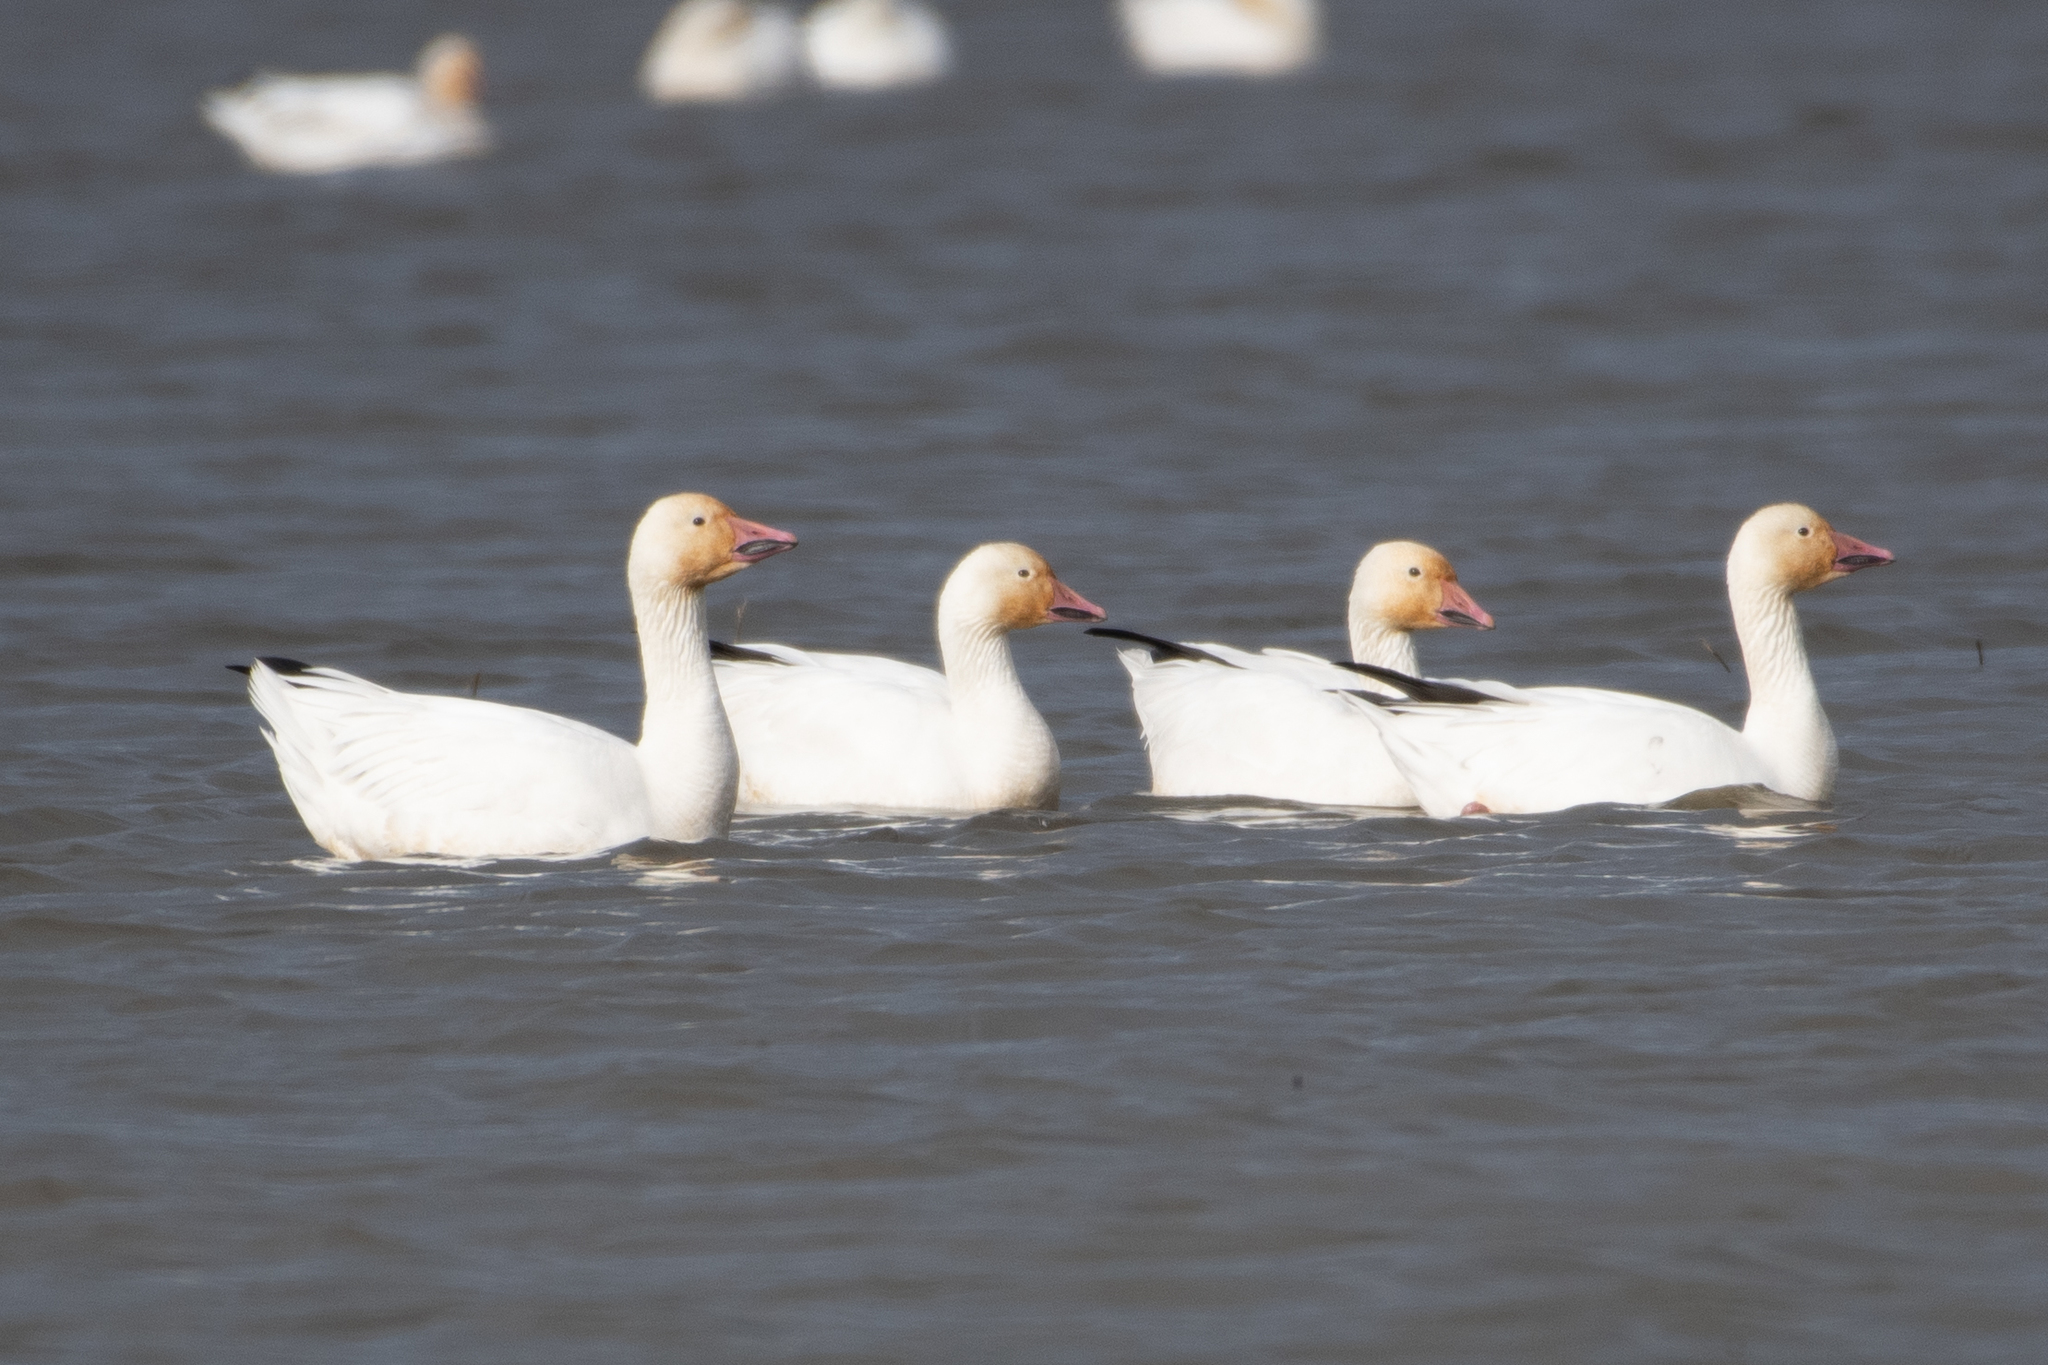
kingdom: Animalia
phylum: Chordata
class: Aves
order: Anseriformes
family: Anatidae
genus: Anser
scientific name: Anser caerulescens
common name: Snow goose
